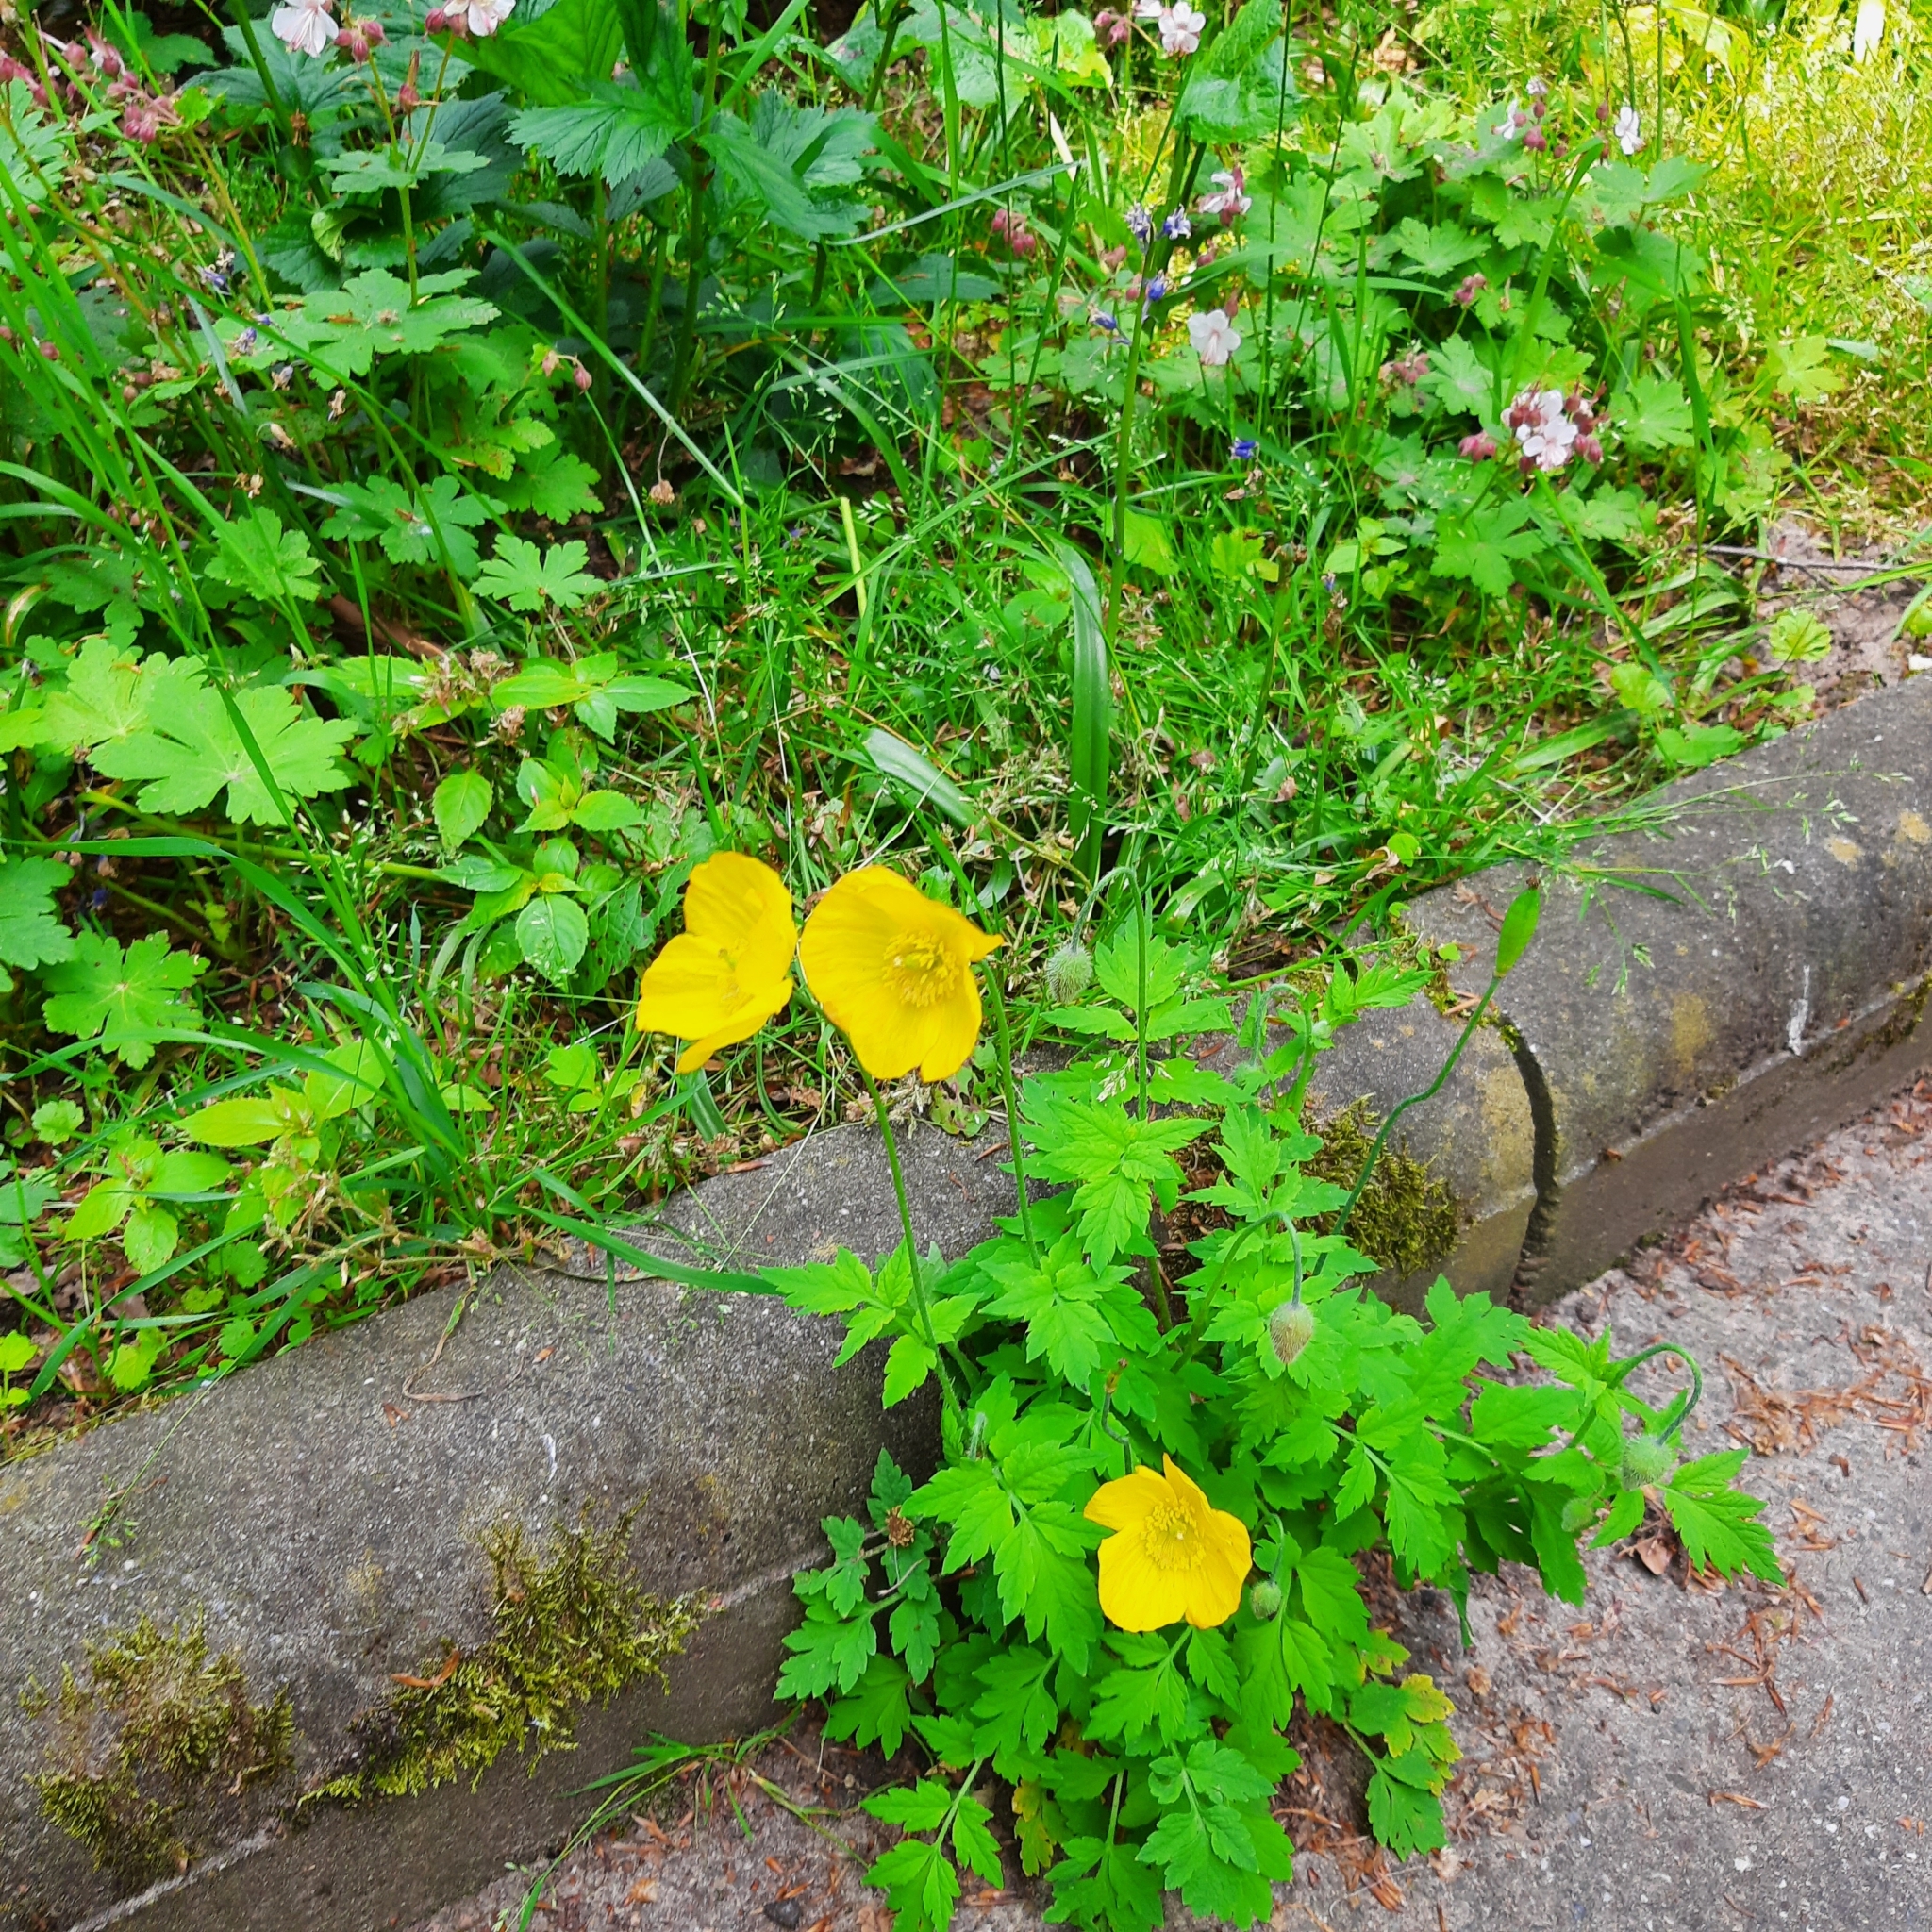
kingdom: Plantae
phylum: Tracheophyta
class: Magnoliopsida
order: Ranunculales
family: Papaveraceae
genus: Papaver
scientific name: Papaver cambricum
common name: Poppy
